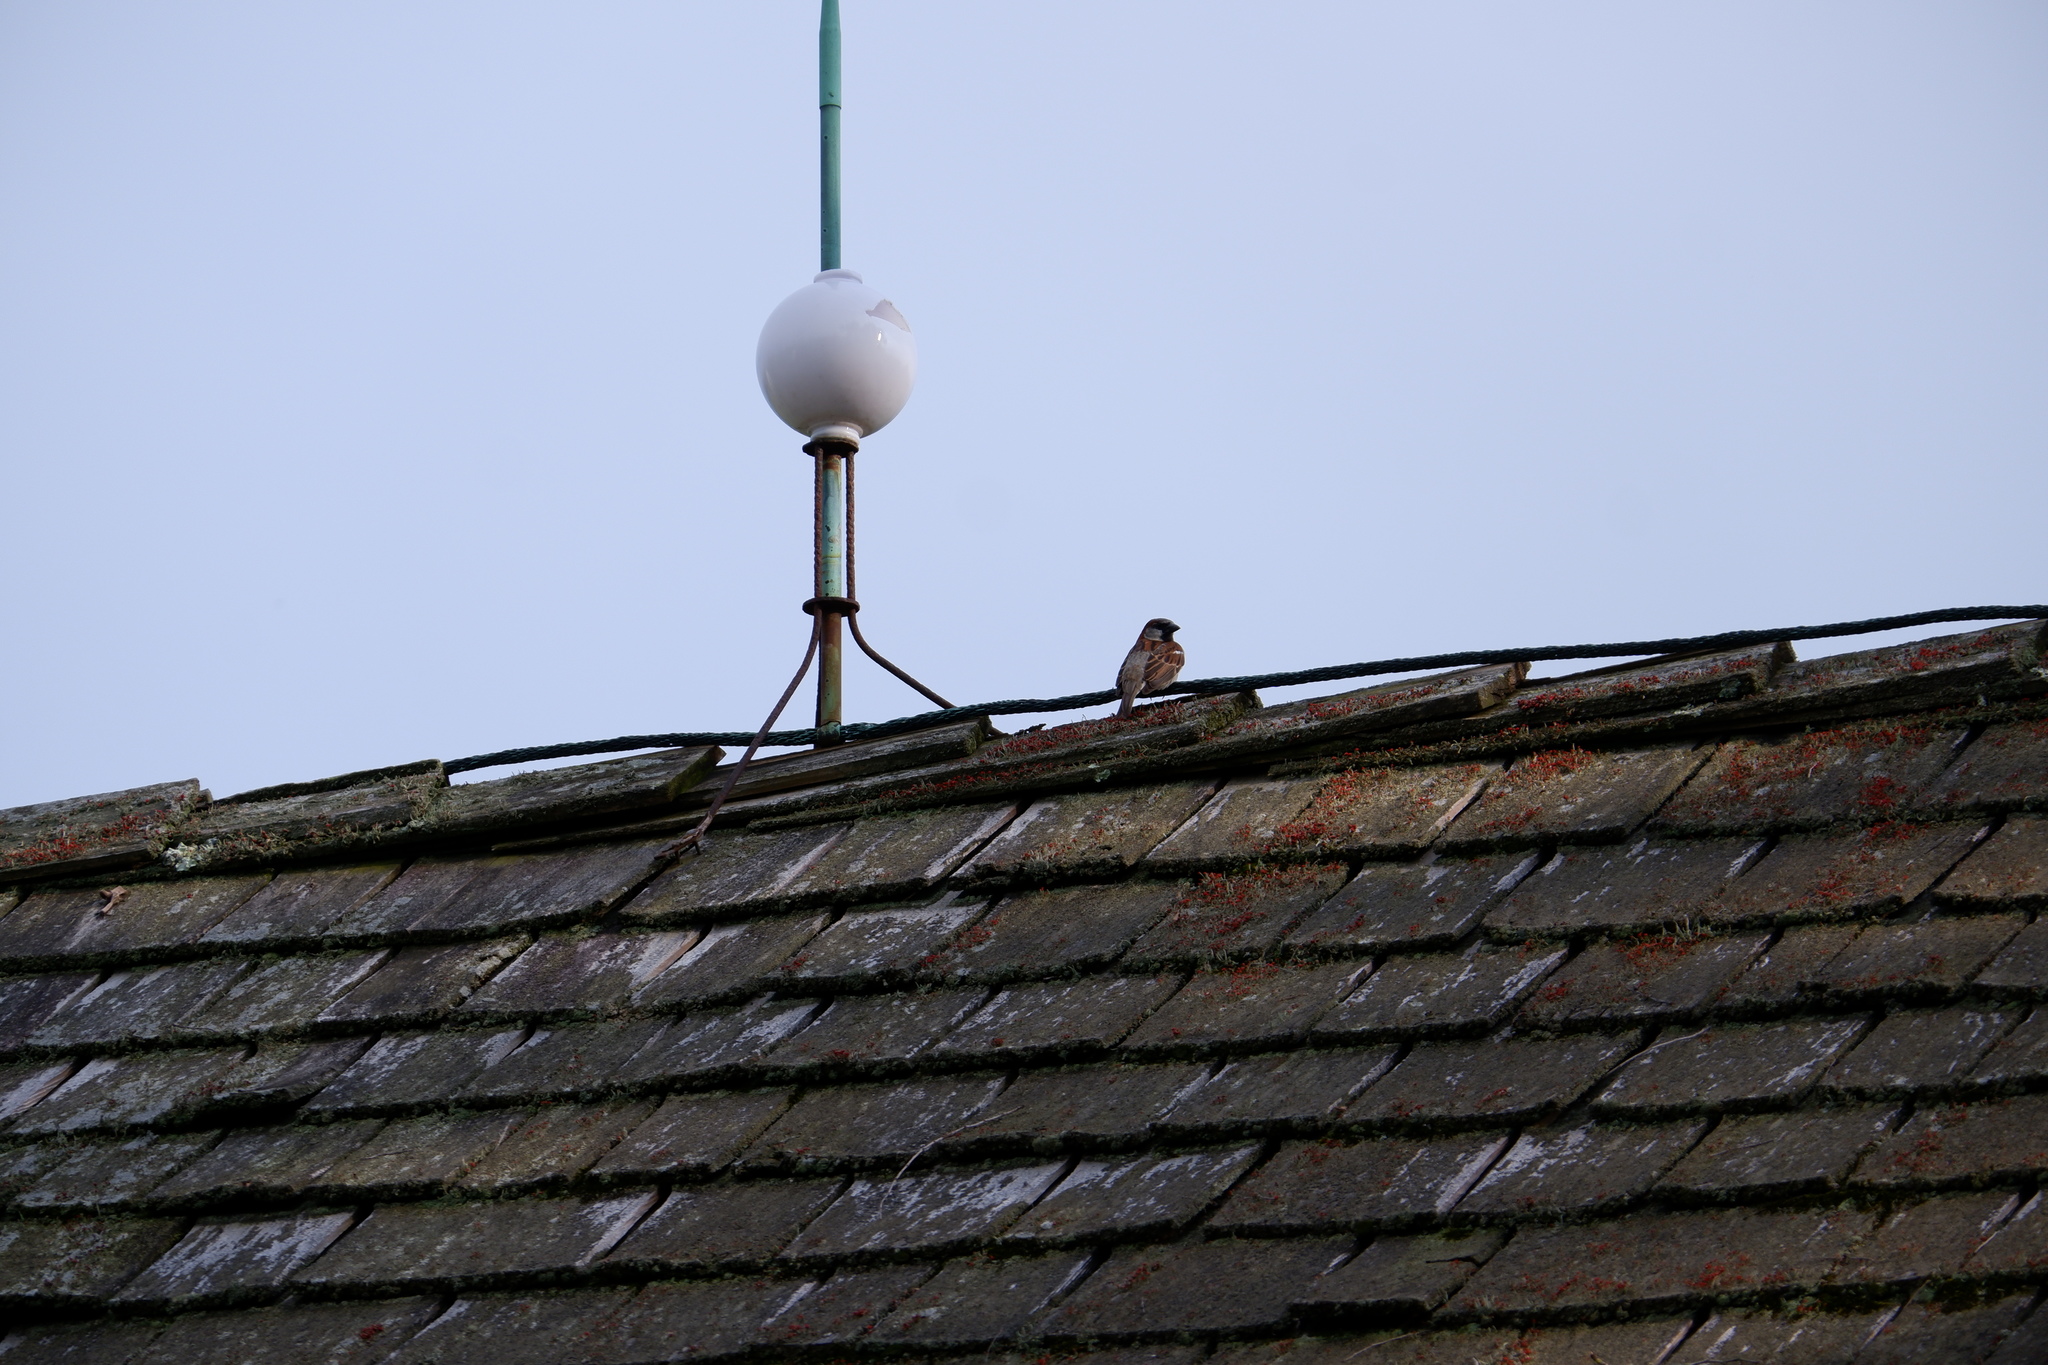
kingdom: Animalia
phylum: Chordata
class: Aves
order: Passeriformes
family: Passeridae
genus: Passer
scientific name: Passer domesticus
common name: House sparrow
